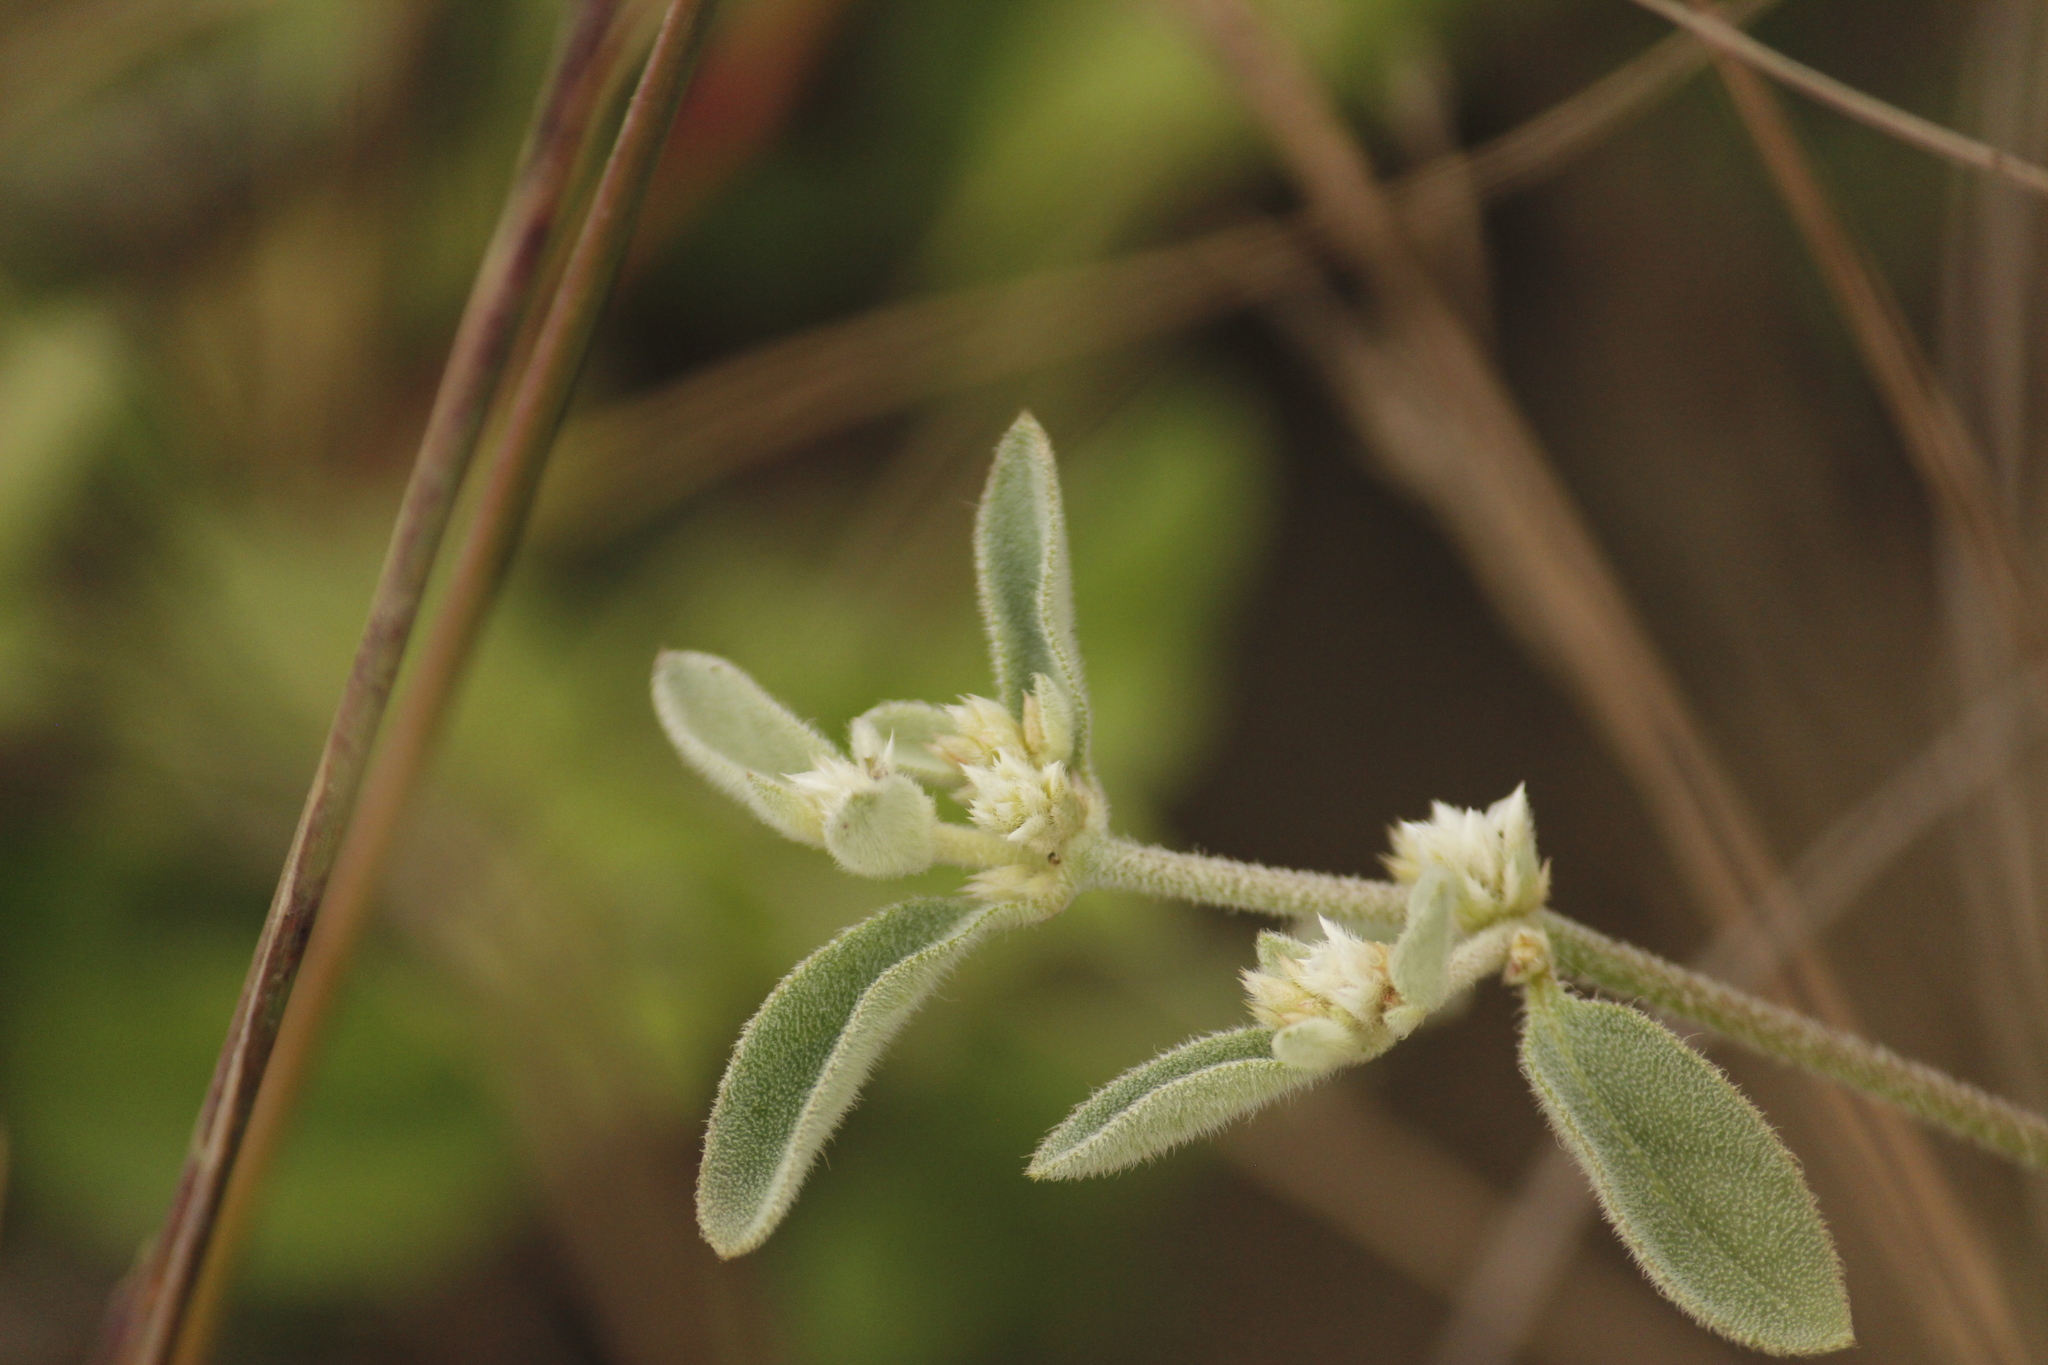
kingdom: Plantae
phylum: Tracheophyta
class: Magnoliopsida
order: Caryophyllales
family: Amaranthaceae
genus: Alternanthera
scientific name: Alternanthera halimifolia
